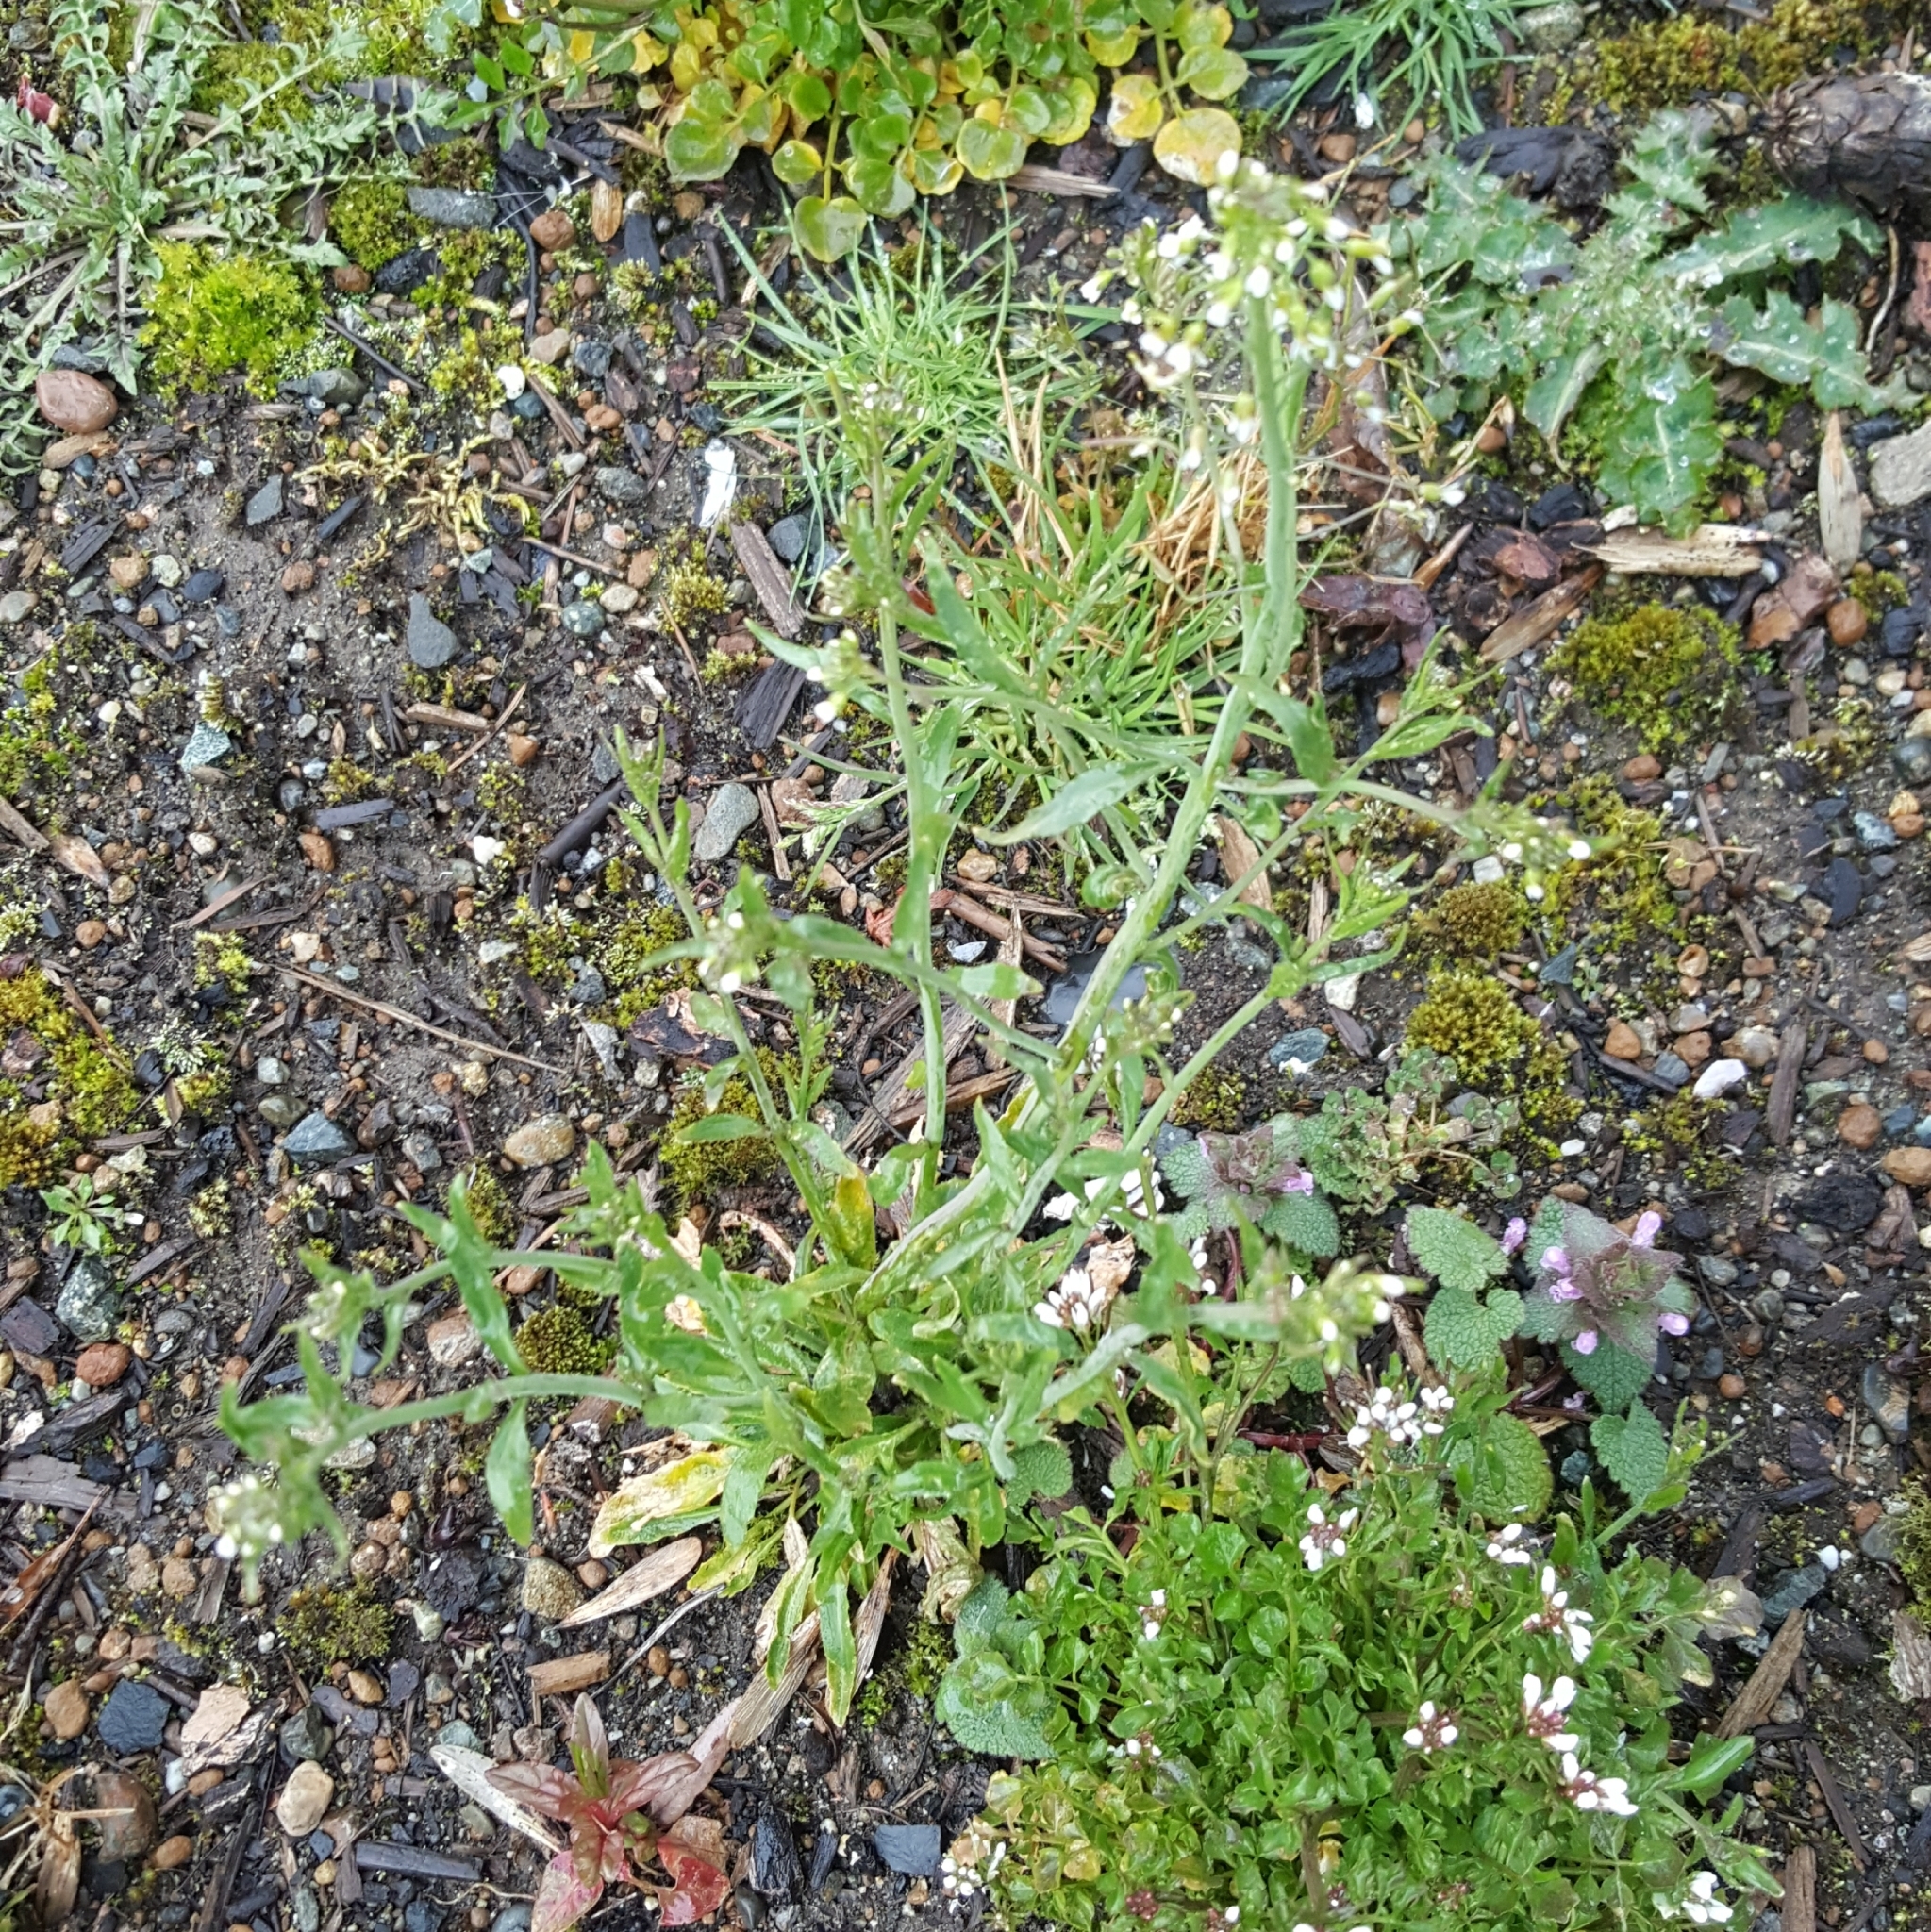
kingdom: Plantae
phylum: Tracheophyta
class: Magnoliopsida
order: Brassicales
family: Brassicaceae
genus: Arabidopsis
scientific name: Arabidopsis thaliana
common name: Thale cress
